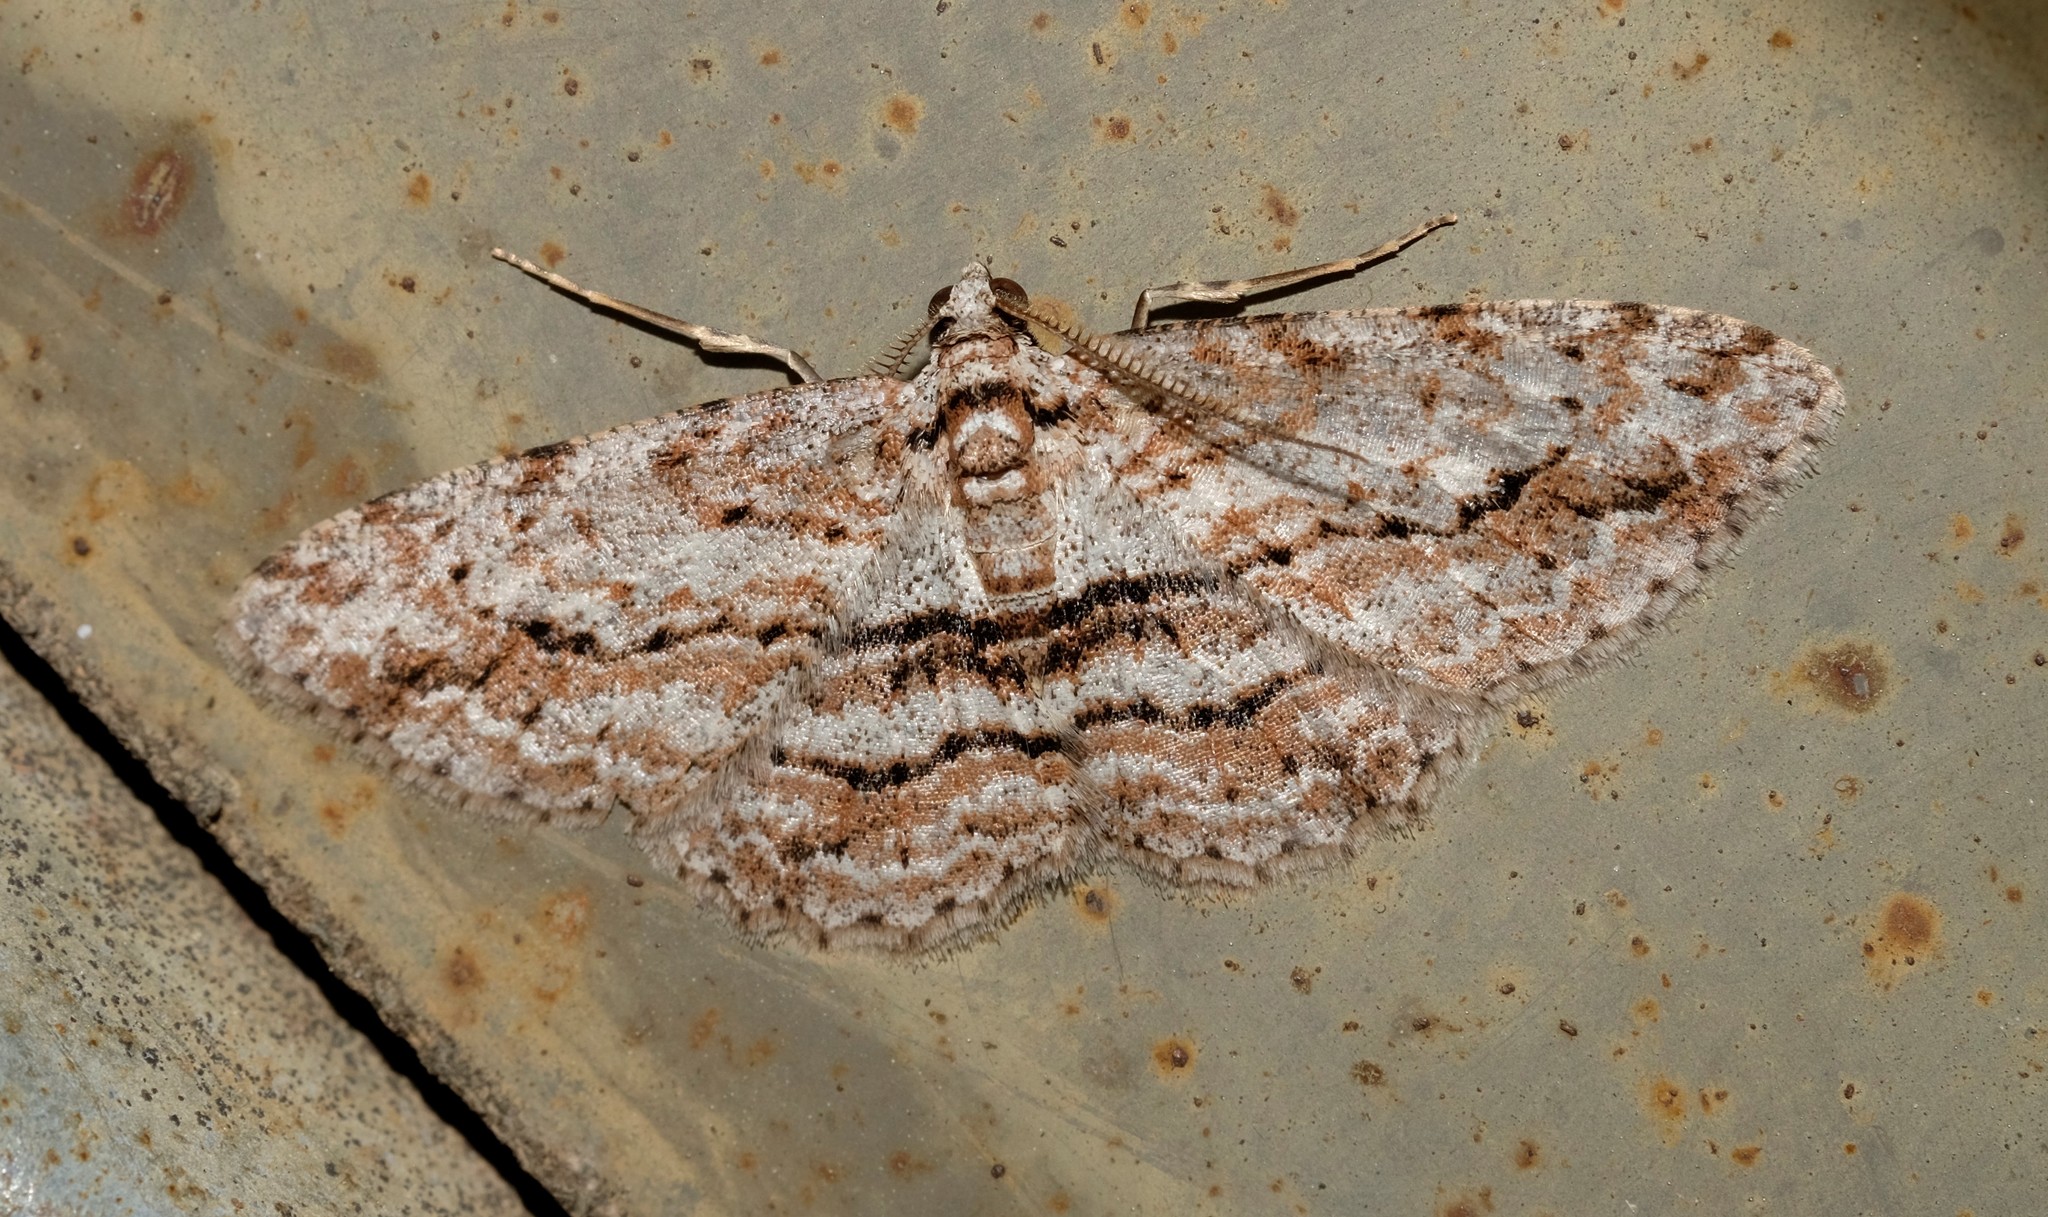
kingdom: Animalia
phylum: Arthropoda
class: Insecta
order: Lepidoptera
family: Geometridae
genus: Didymoctenia
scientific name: Didymoctenia exsuperata
